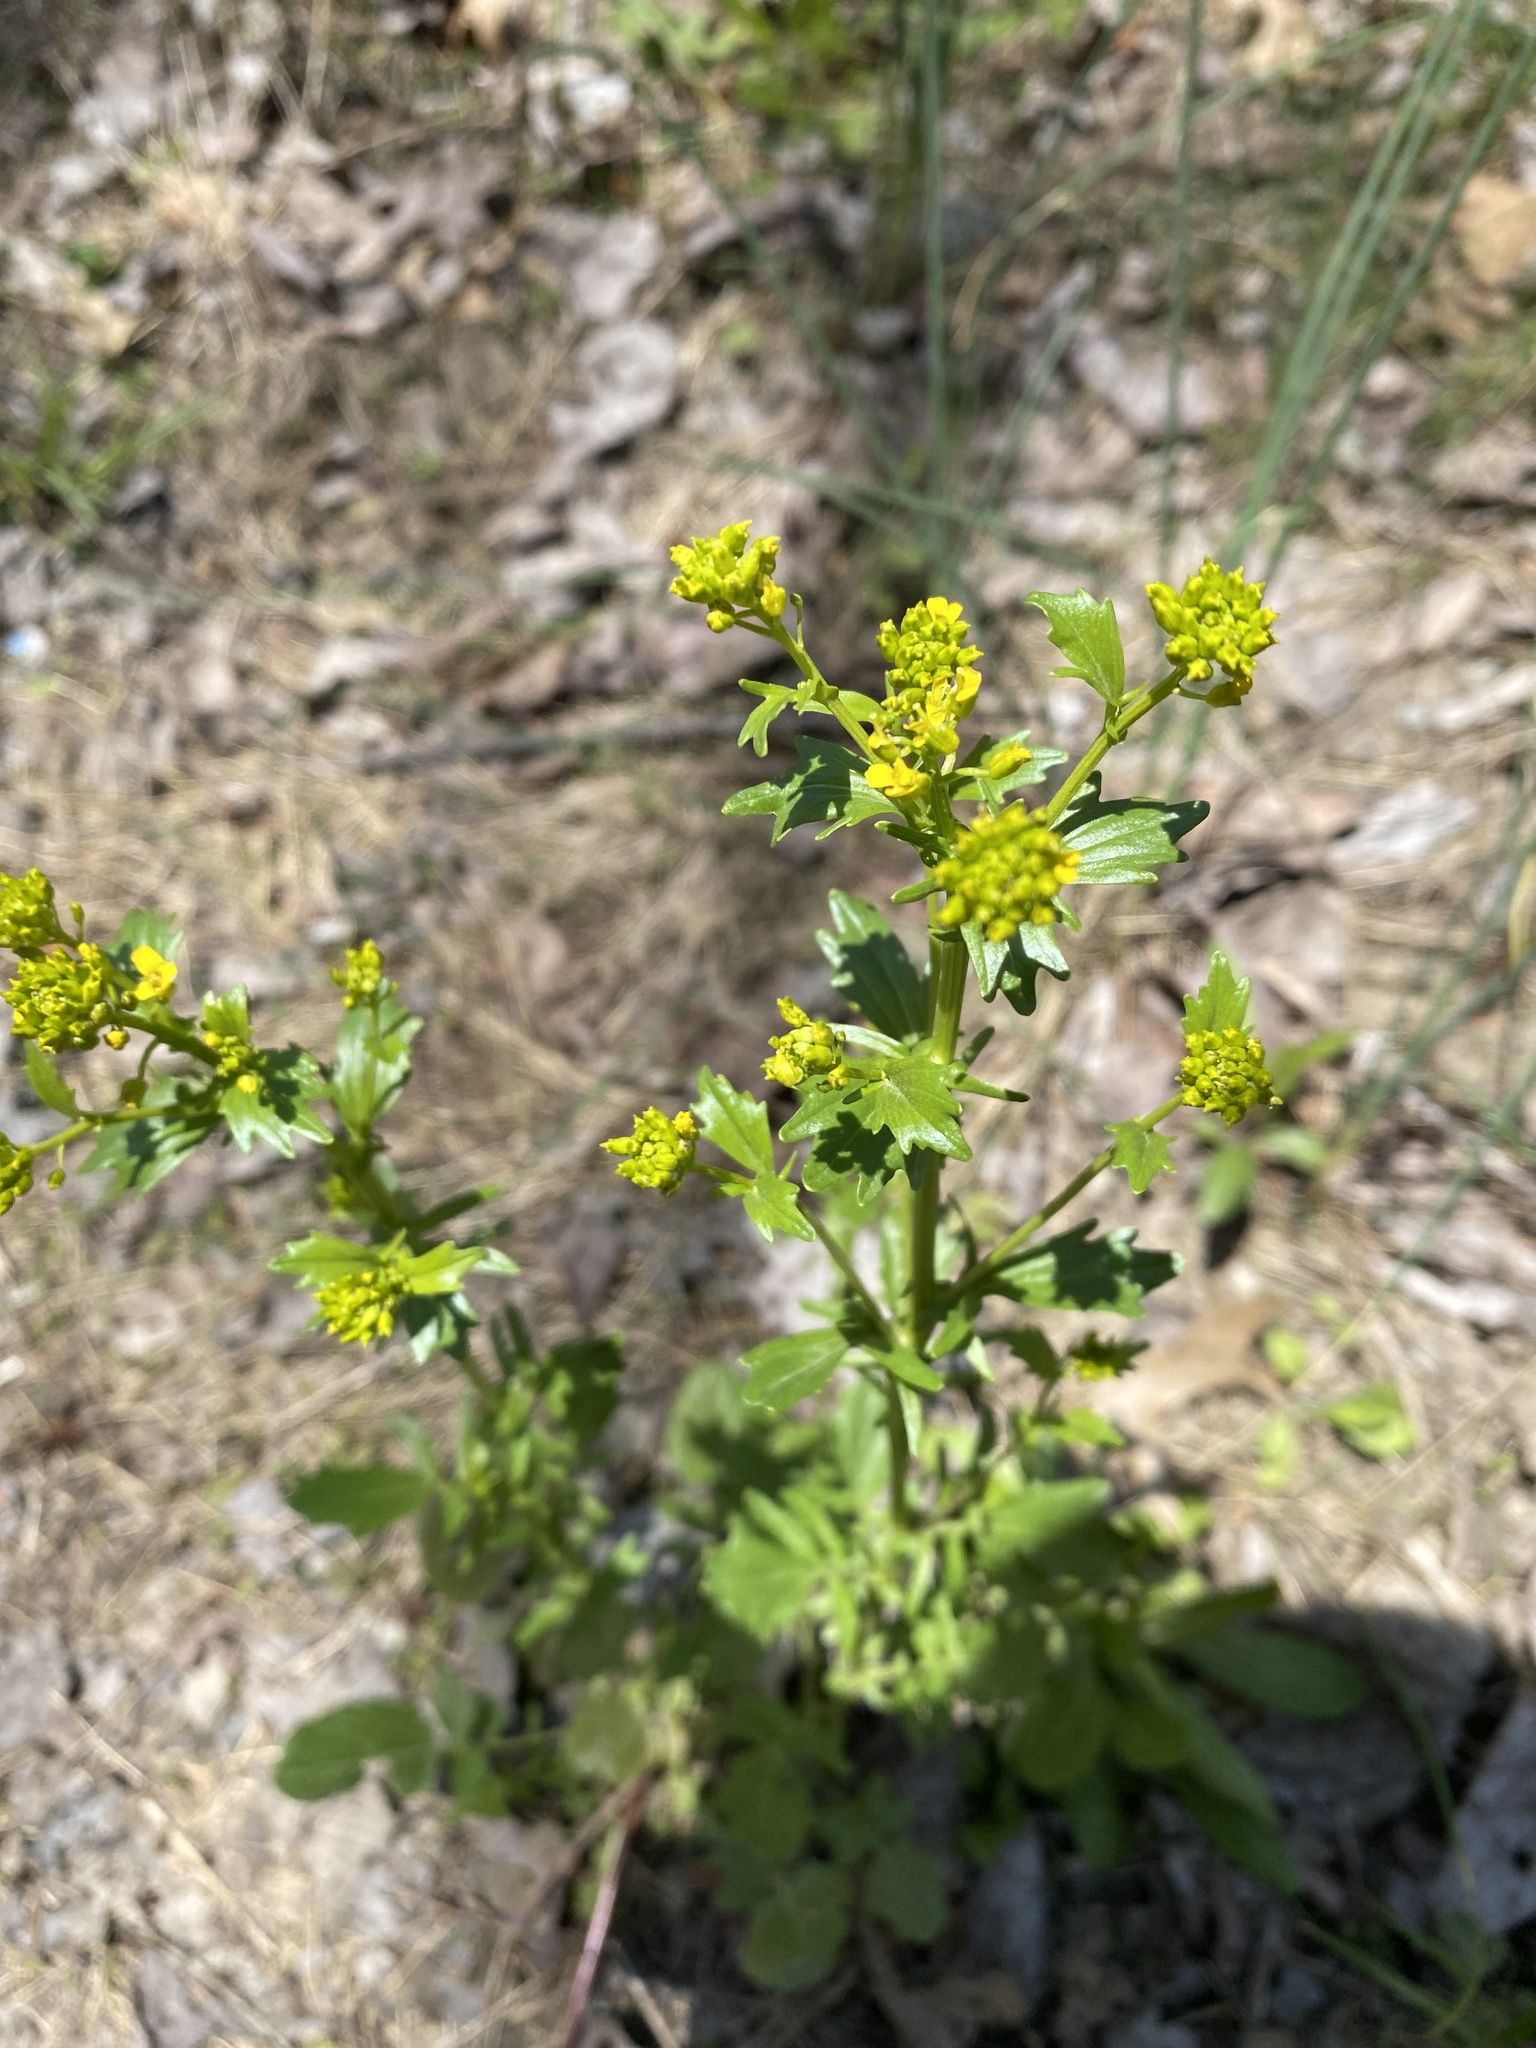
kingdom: Plantae
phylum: Tracheophyta
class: Magnoliopsida
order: Brassicales
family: Brassicaceae
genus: Barbarea
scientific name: Barbarea vulgaris
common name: Cressy-greens
